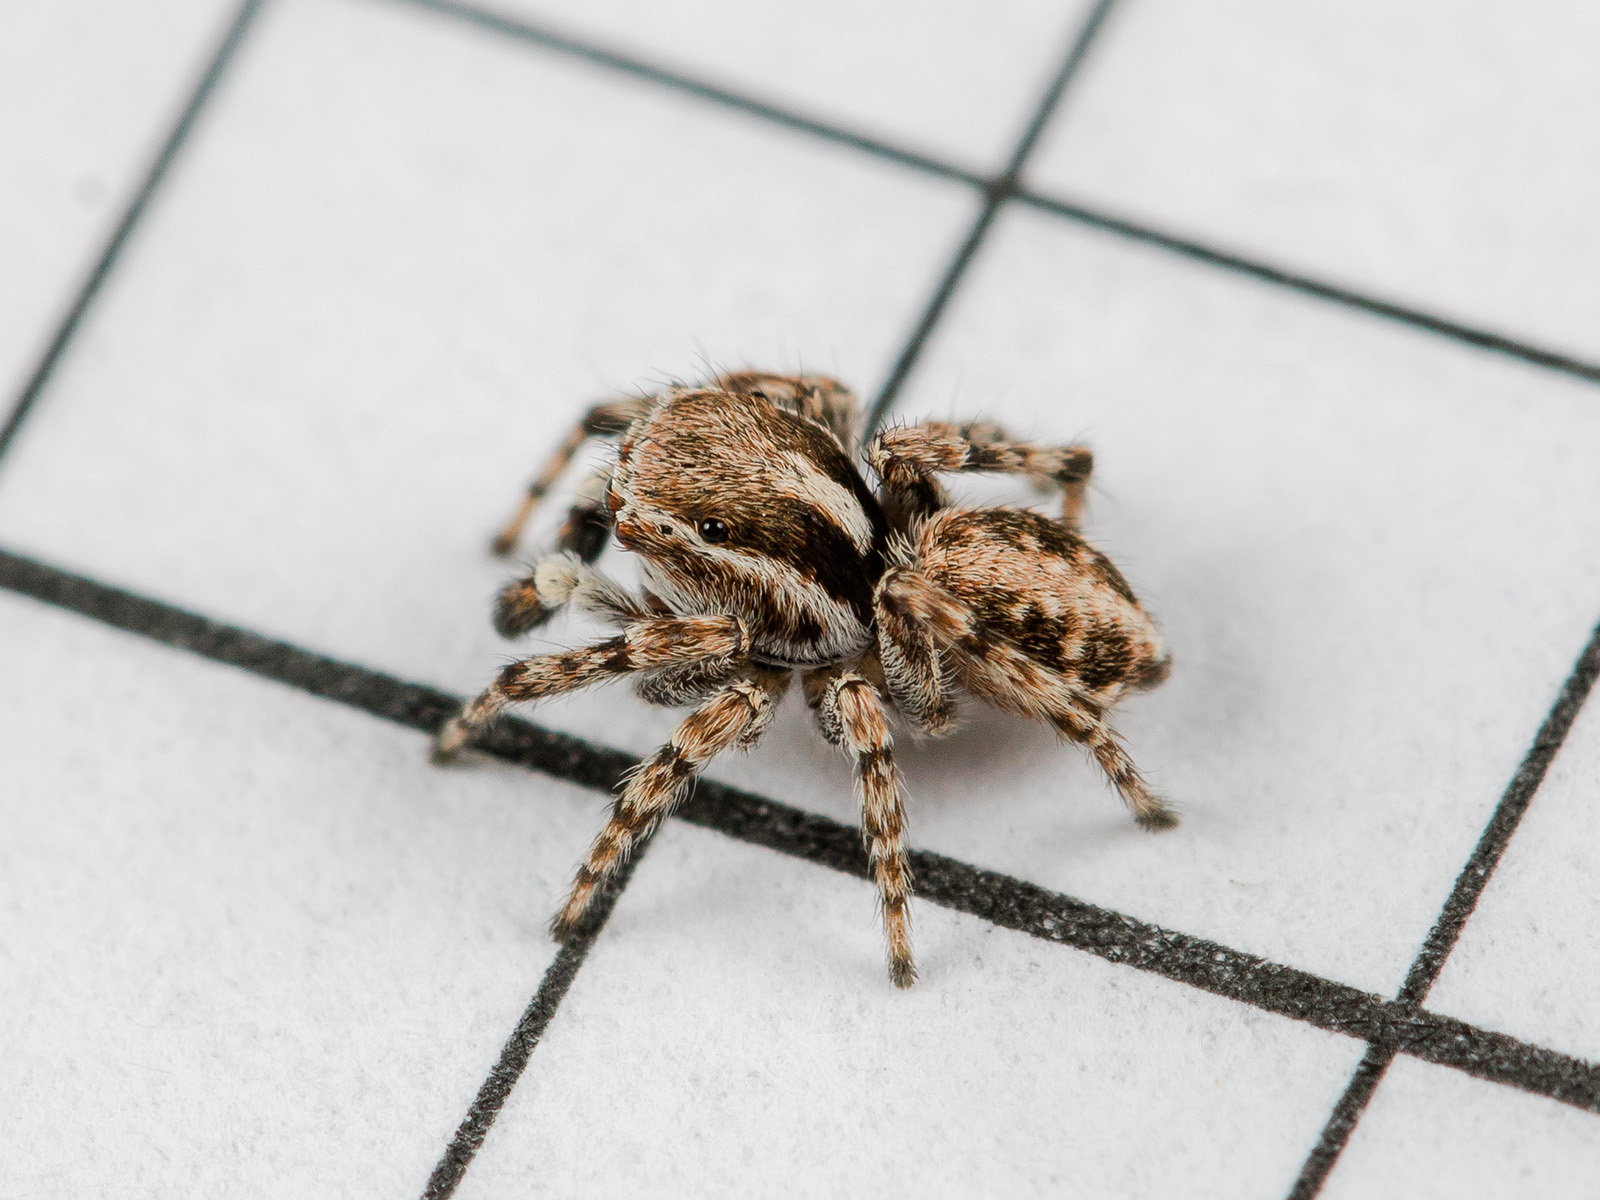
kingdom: Animalia
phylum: Arthropoda
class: Arachnida
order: Araneae
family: Salticidae
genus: Attulus
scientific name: Attulus avocator
